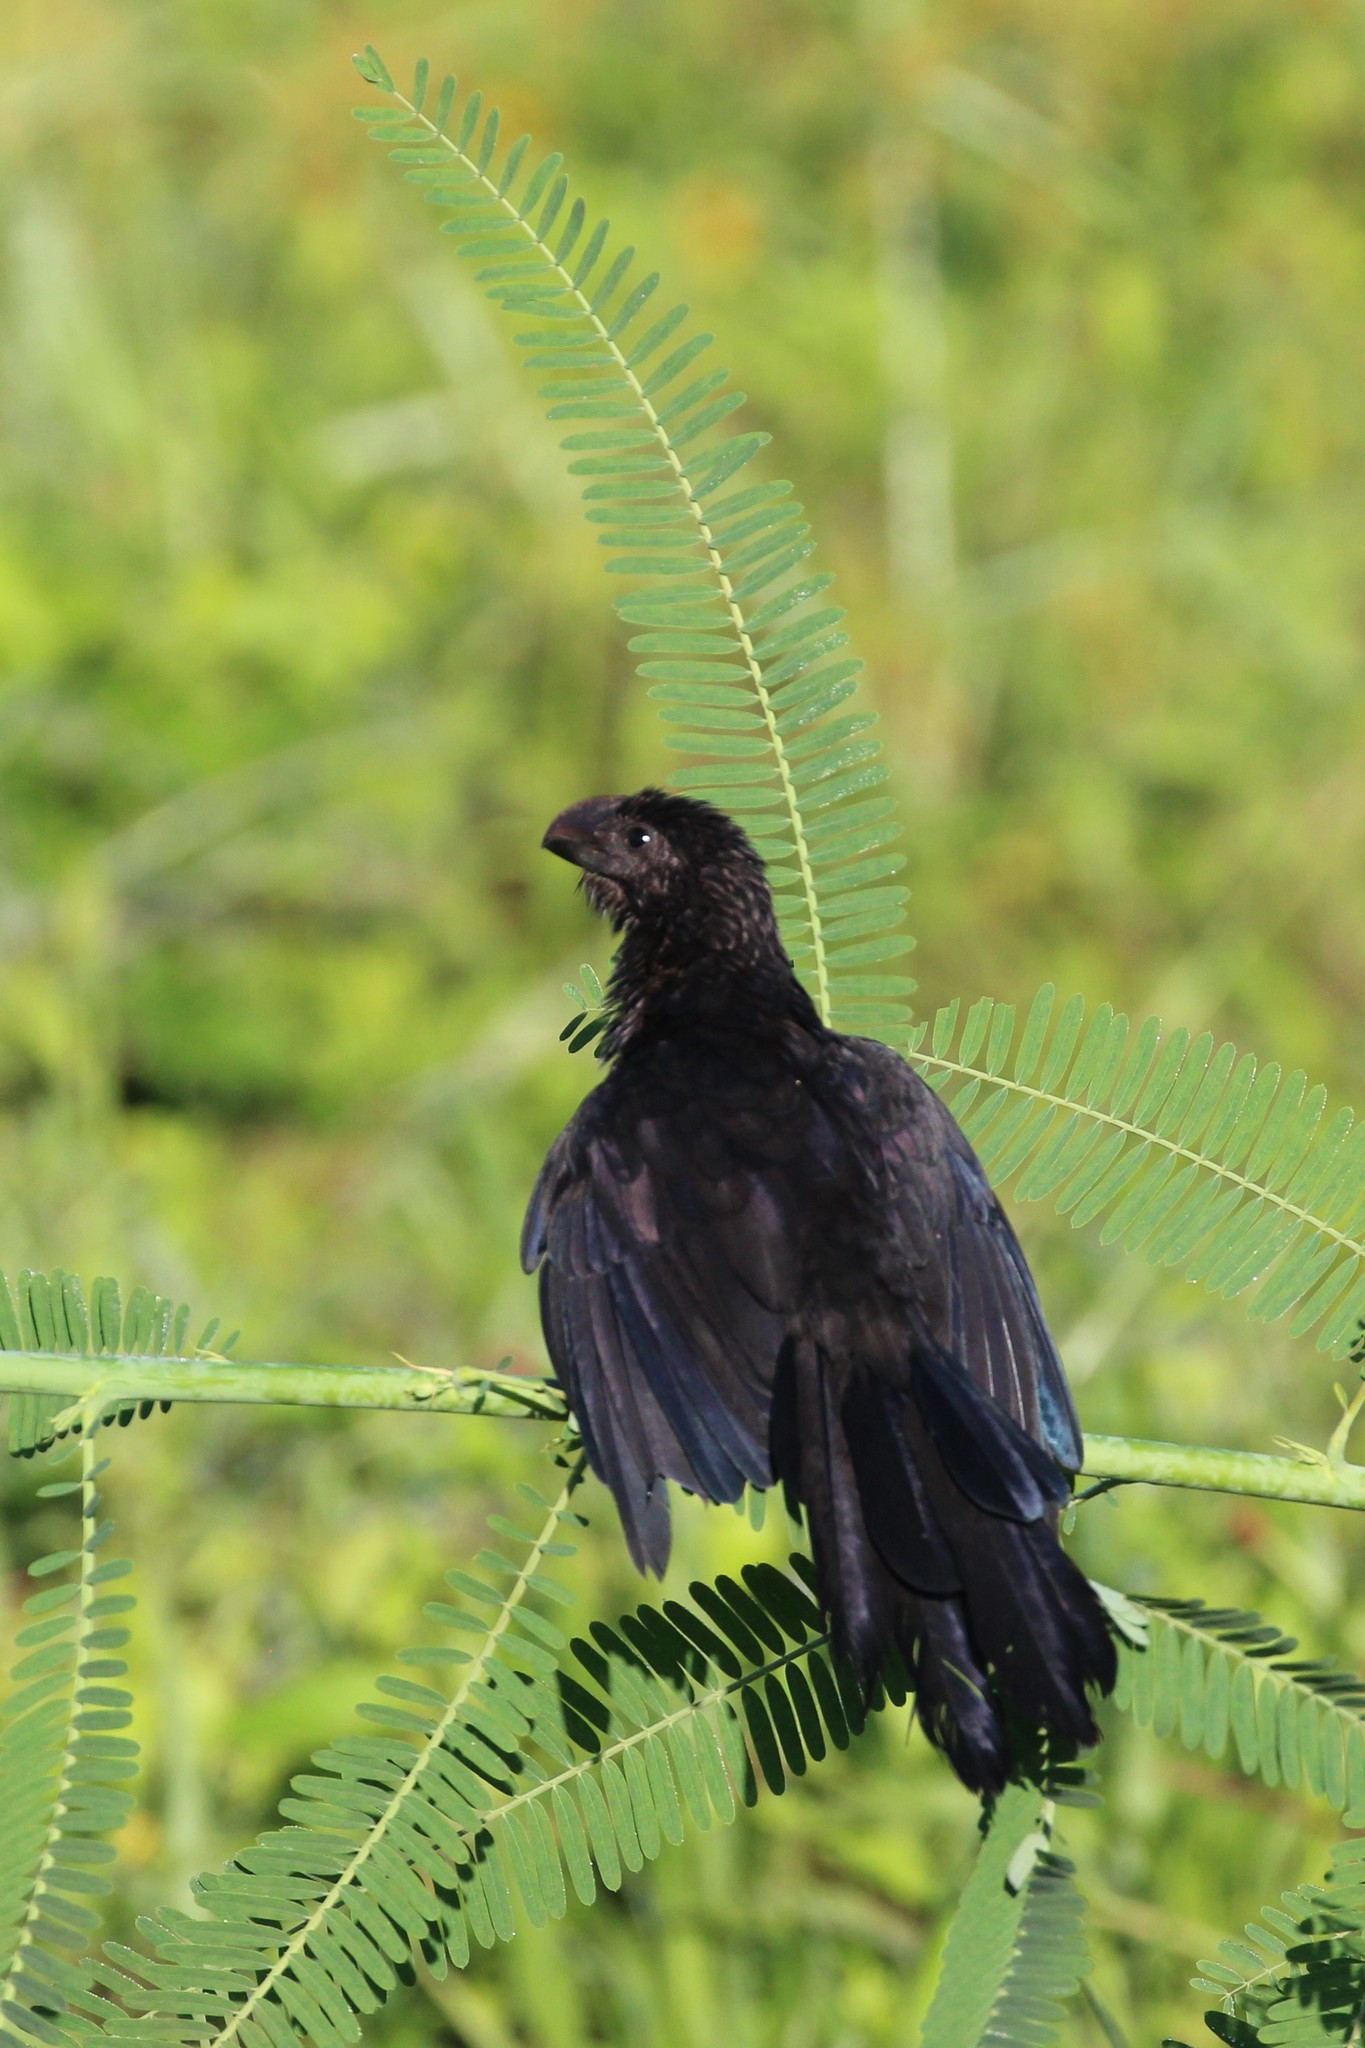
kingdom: Animalia
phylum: Chordata
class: Aves
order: Cuculiformes
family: Cuculidae
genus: Crotophaga
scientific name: Crotophaga ani
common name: Smooth-billed ani
